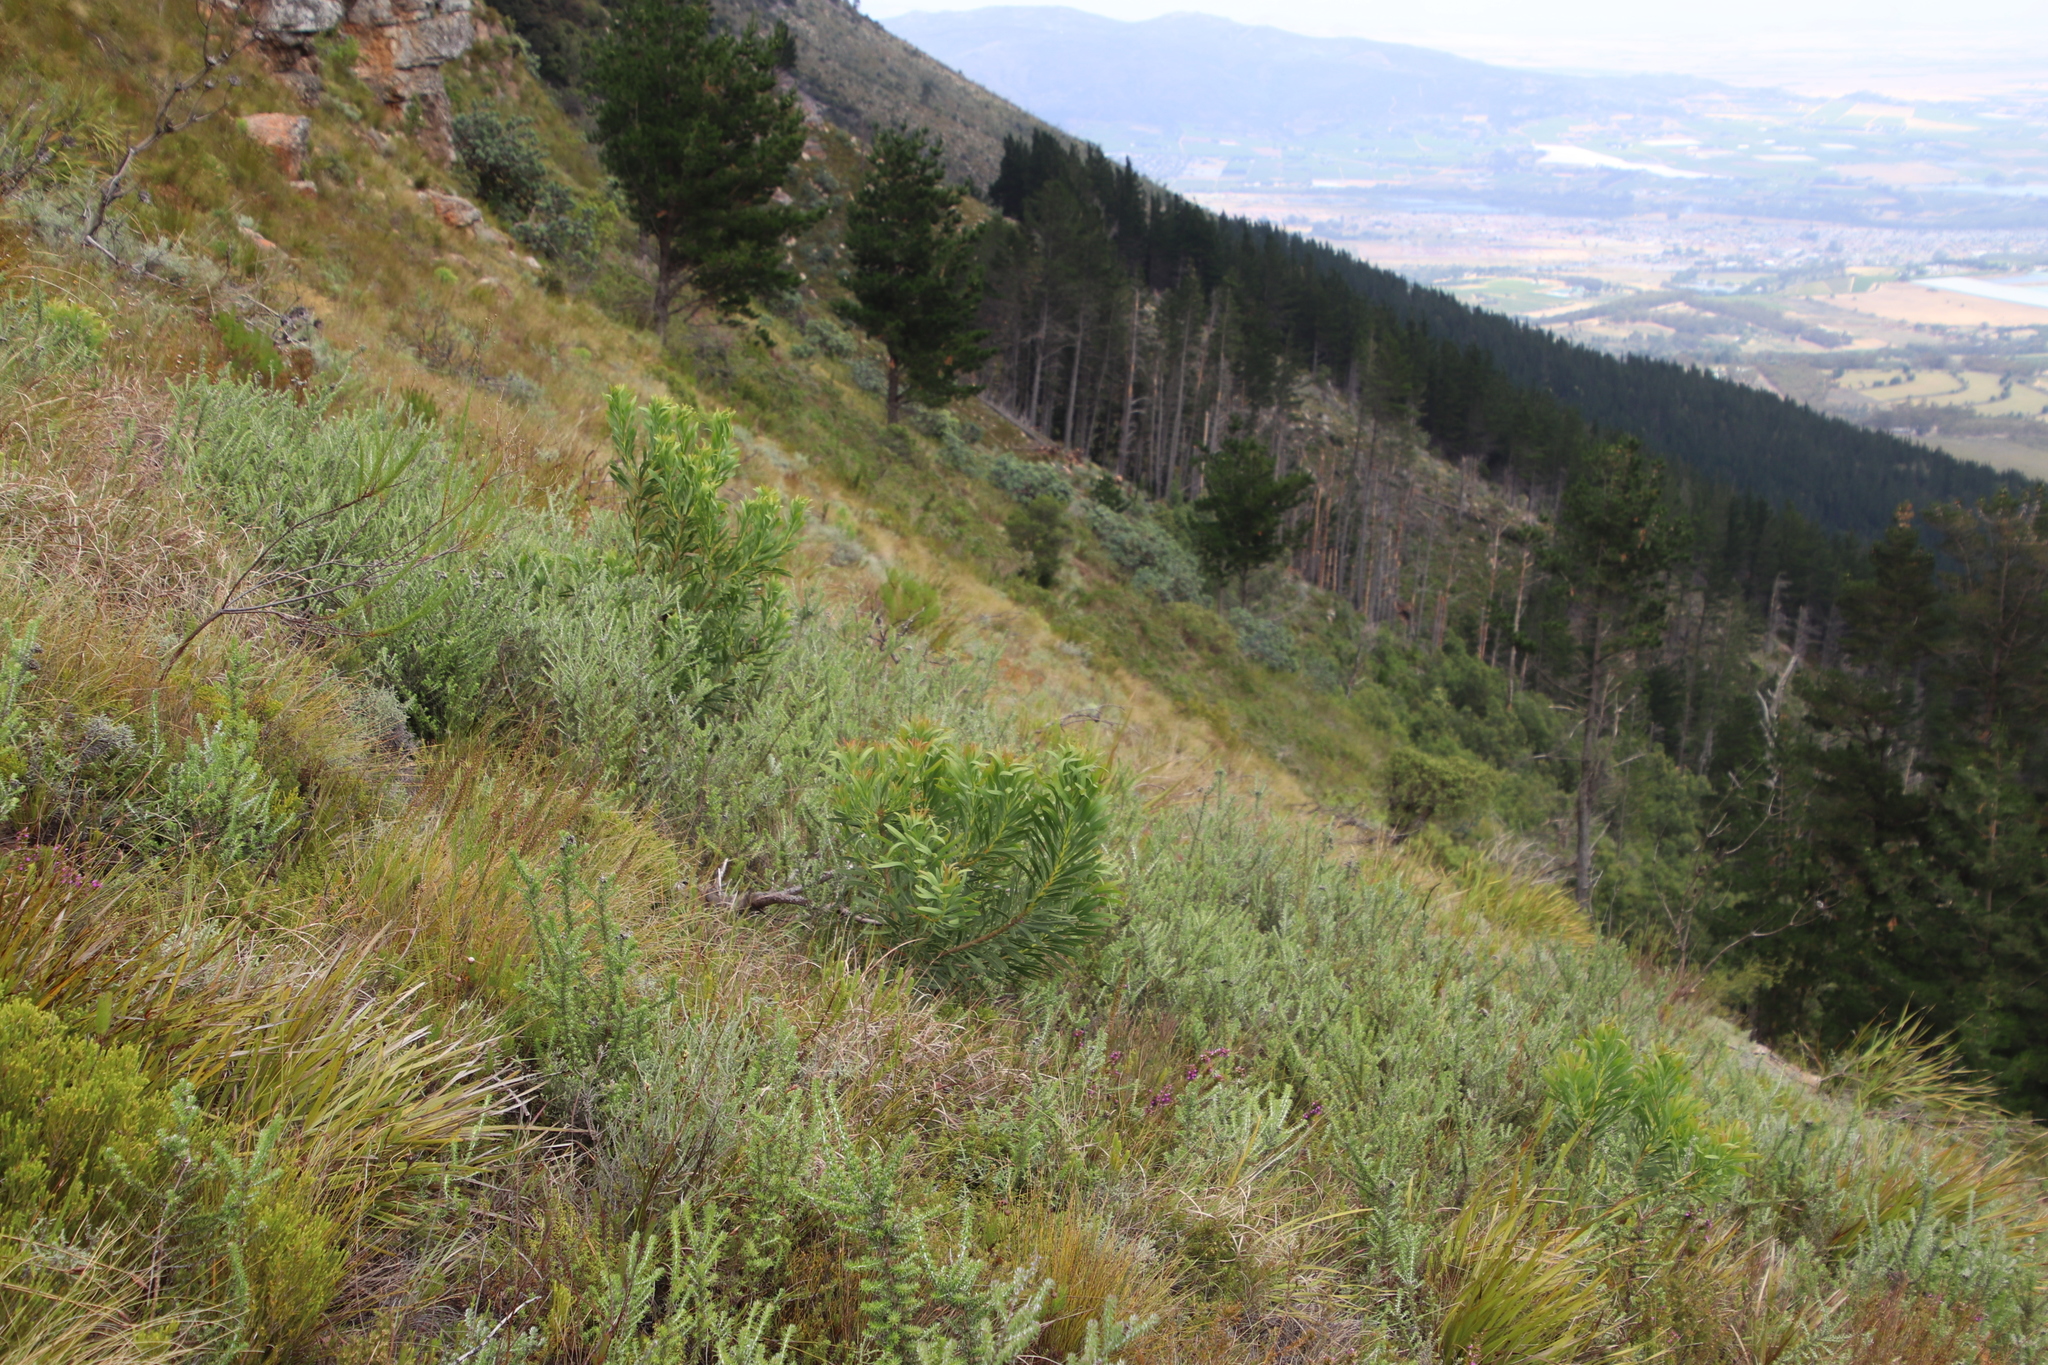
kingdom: Plantae
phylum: Tracheophyta
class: Magnoliopsida
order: Proteales
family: Proteaceae
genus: Protea
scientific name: Protea repens
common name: Sugarbush
